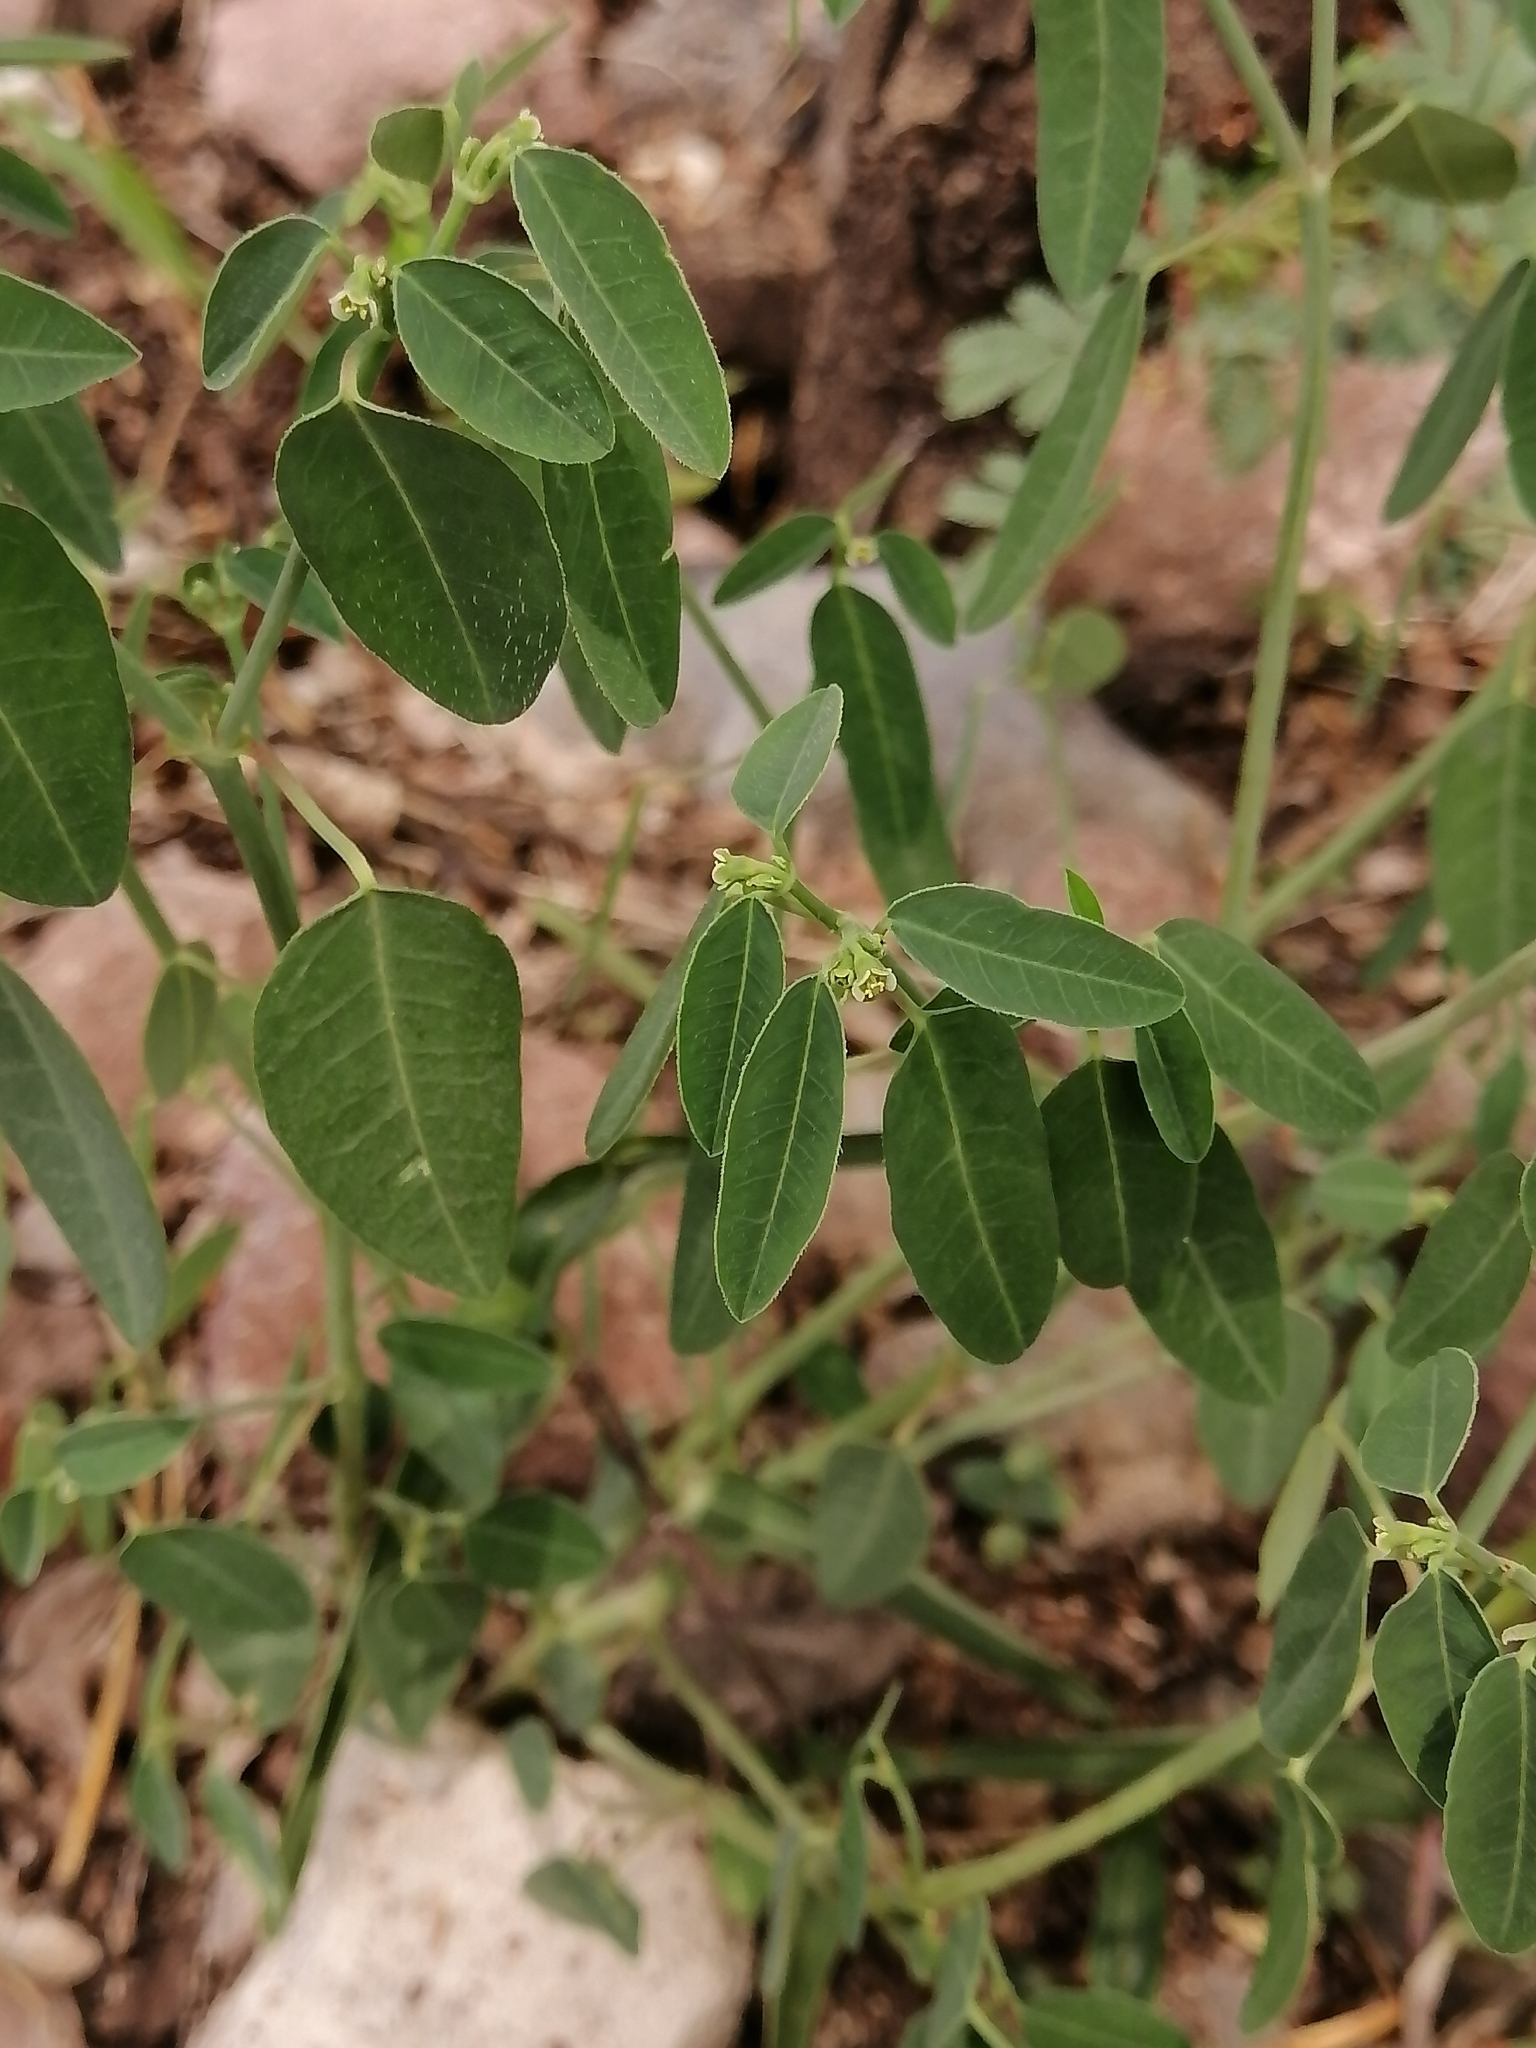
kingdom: Plantae
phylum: Tracheophyta
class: Magnoliopsida
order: Malpighiales
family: Euphorbiaceae
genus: Euphorbia
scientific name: Euphorbia macropus
